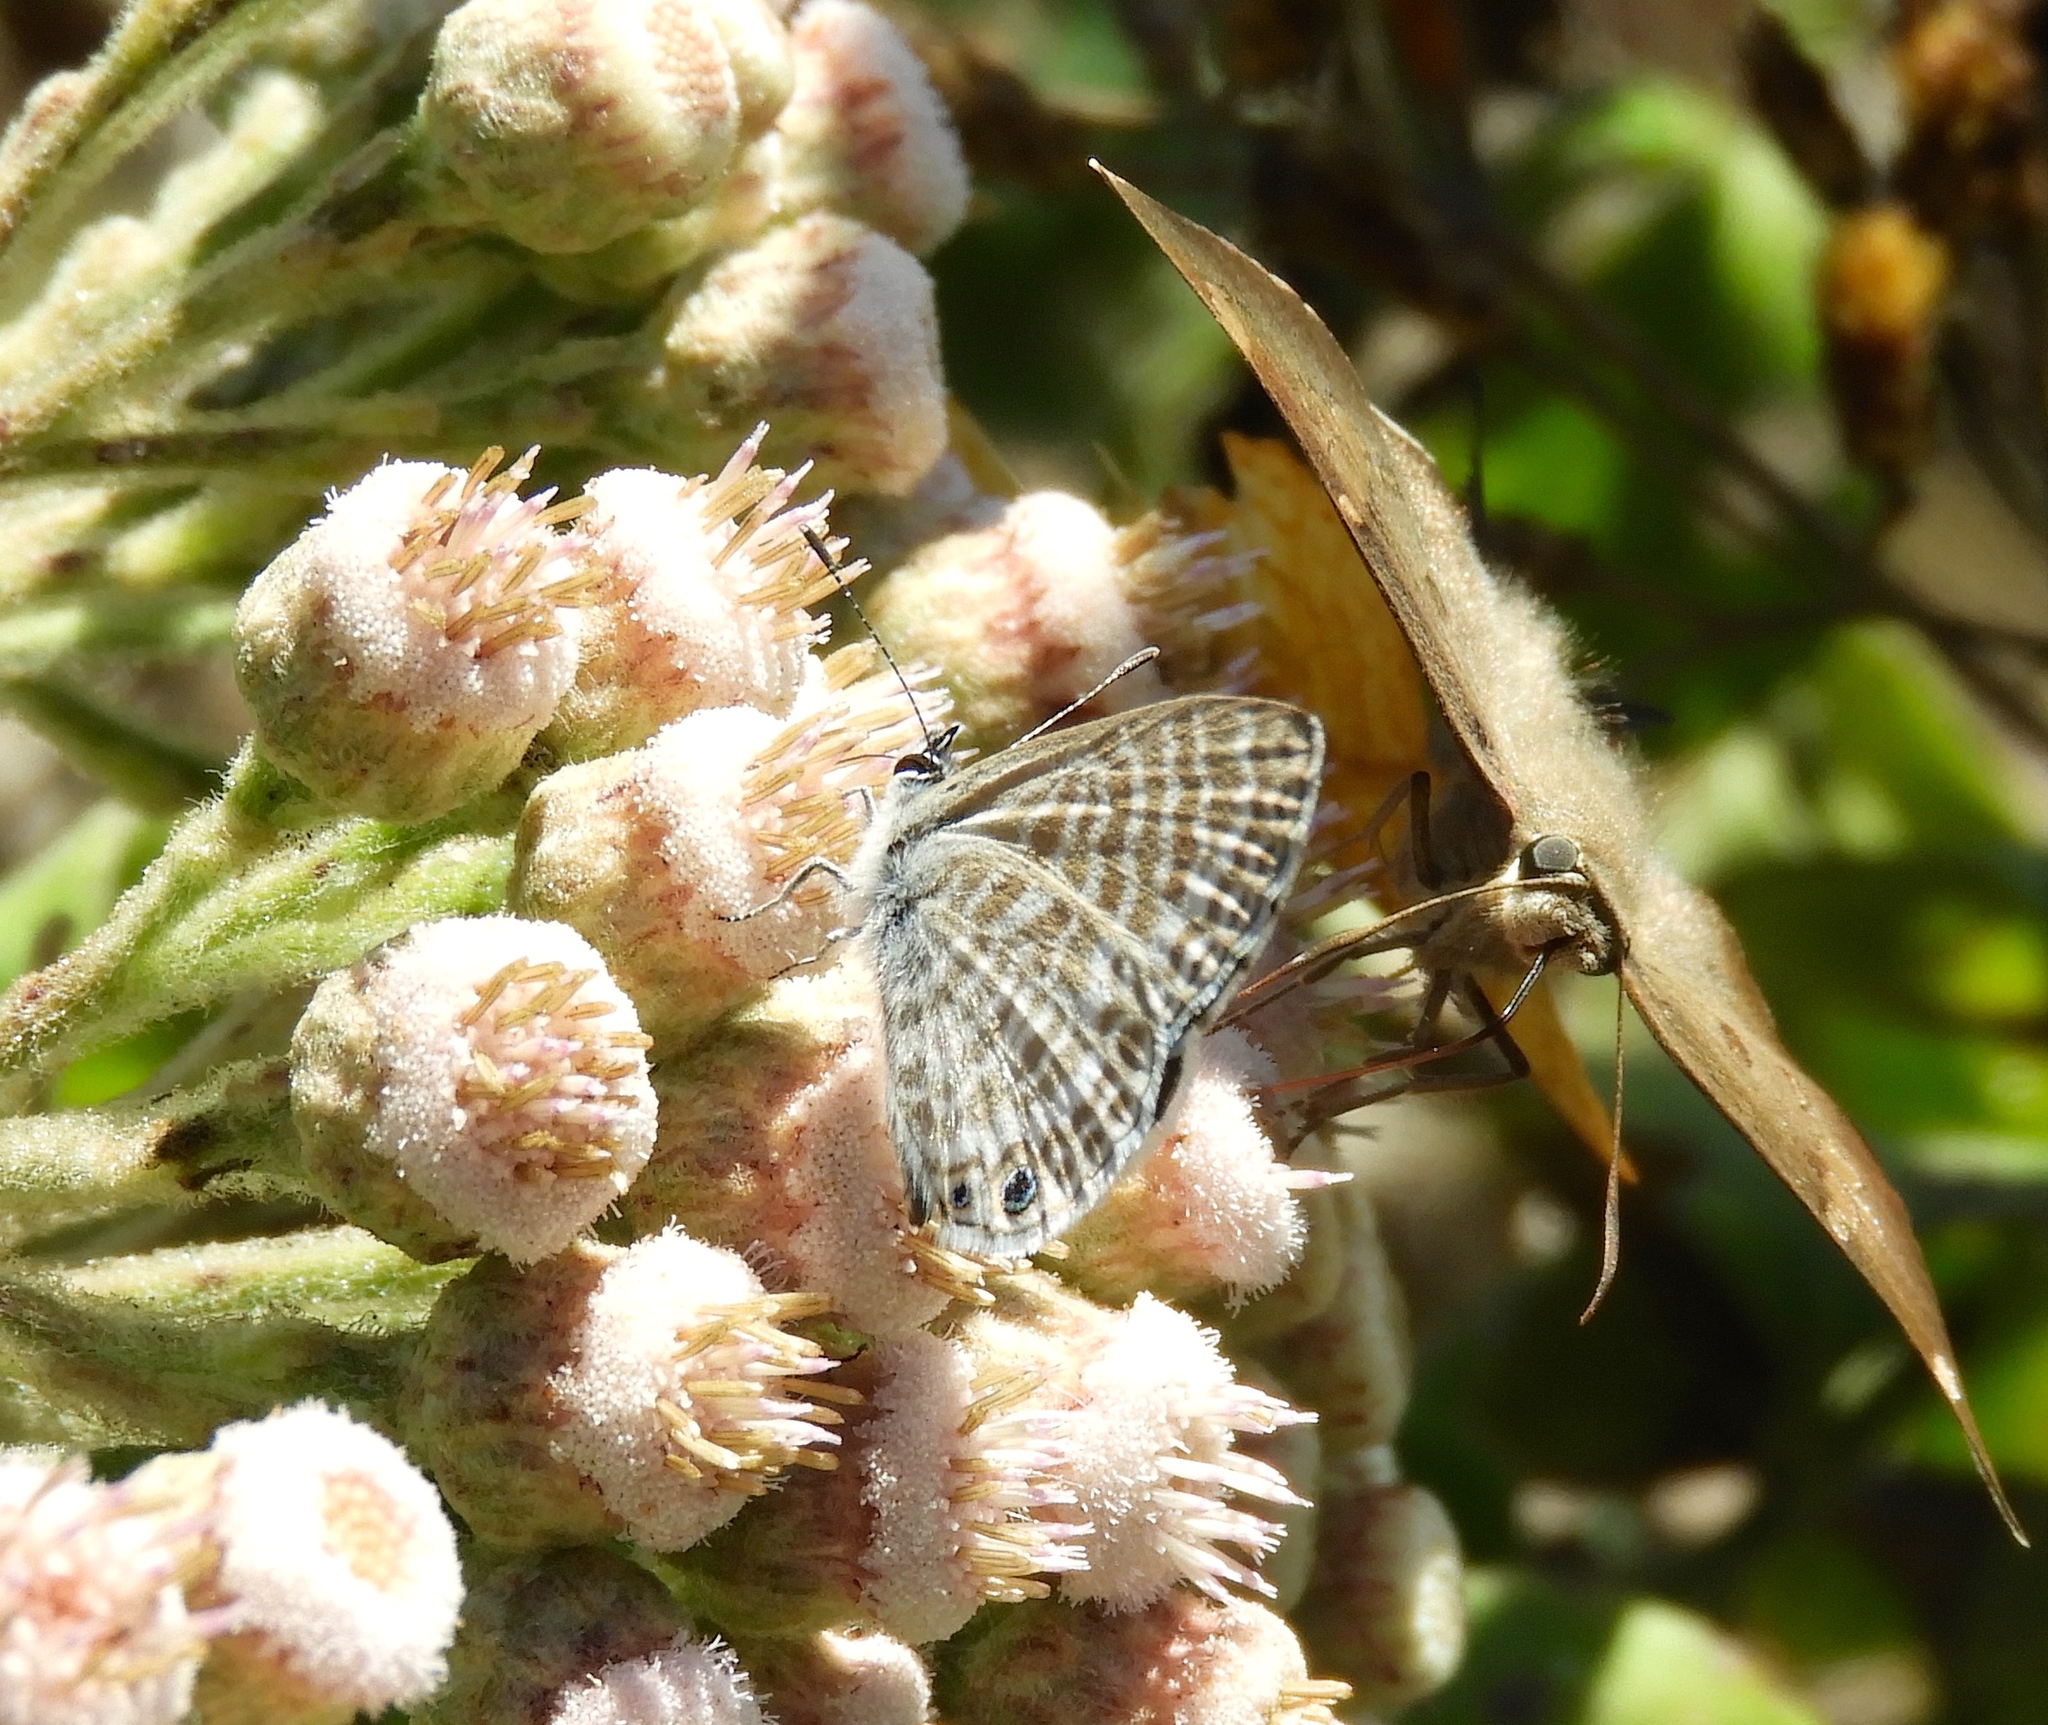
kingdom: Animalia
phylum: Arthropoda
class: Insecta
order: Lepidoptera
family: Lycaenidae
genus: Leptotes
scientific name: Leptotes marina
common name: Marine blue
